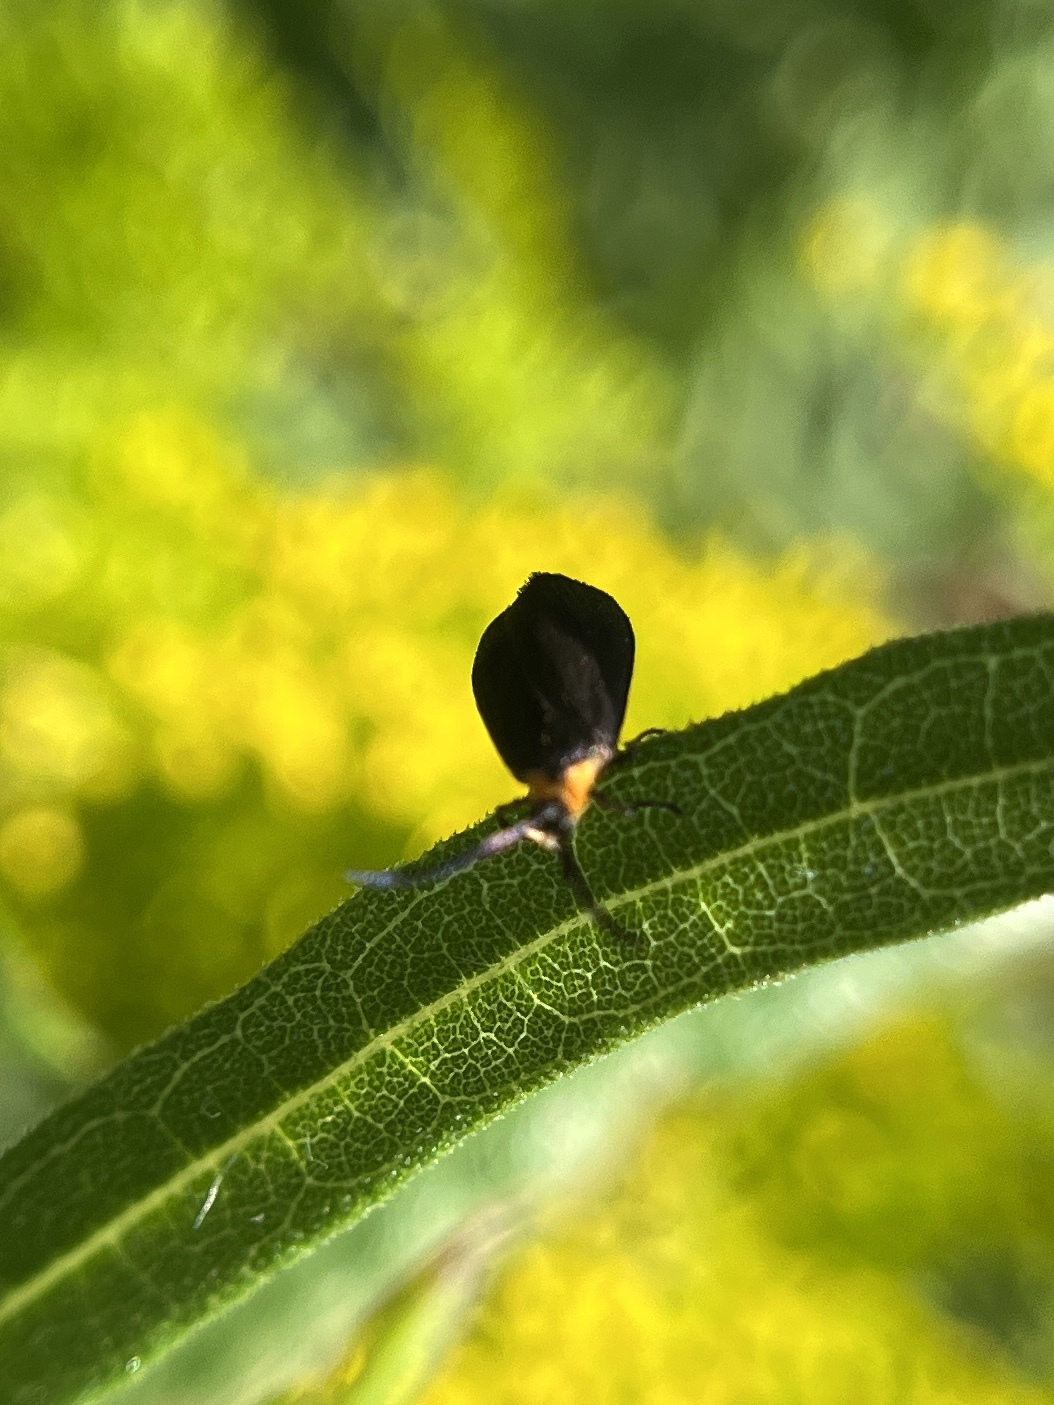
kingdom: Animalia
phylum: Arthropoda
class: Insecta
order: Lepidoptera
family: Zygaenidae
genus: Acoloithus
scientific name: Acoloithus falsarius
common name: Clemens' false skeletonizer
